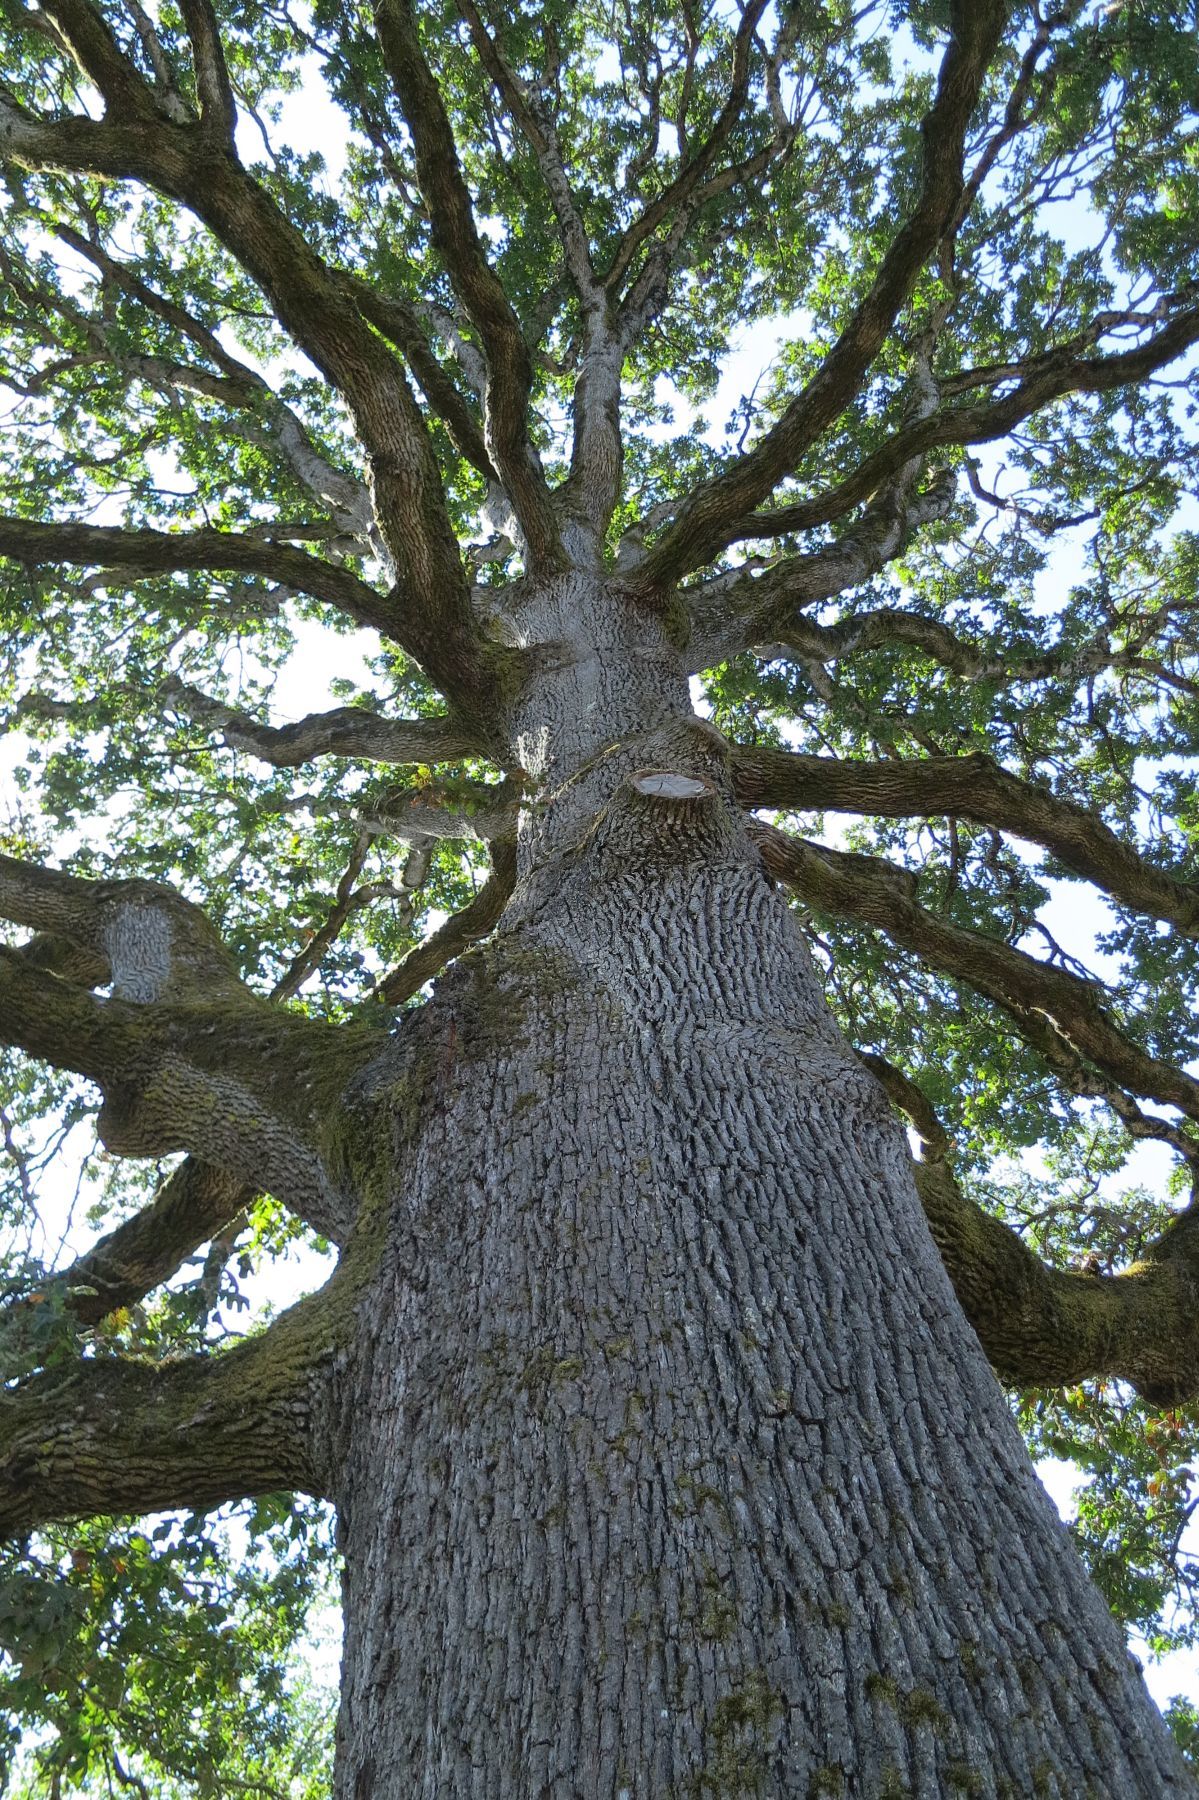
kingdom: Plantae
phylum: Tracheophyta
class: Magnoliopsida
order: Fagales
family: Fagaceae
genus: Quercus
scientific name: Quercus garryana
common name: Garry oak
